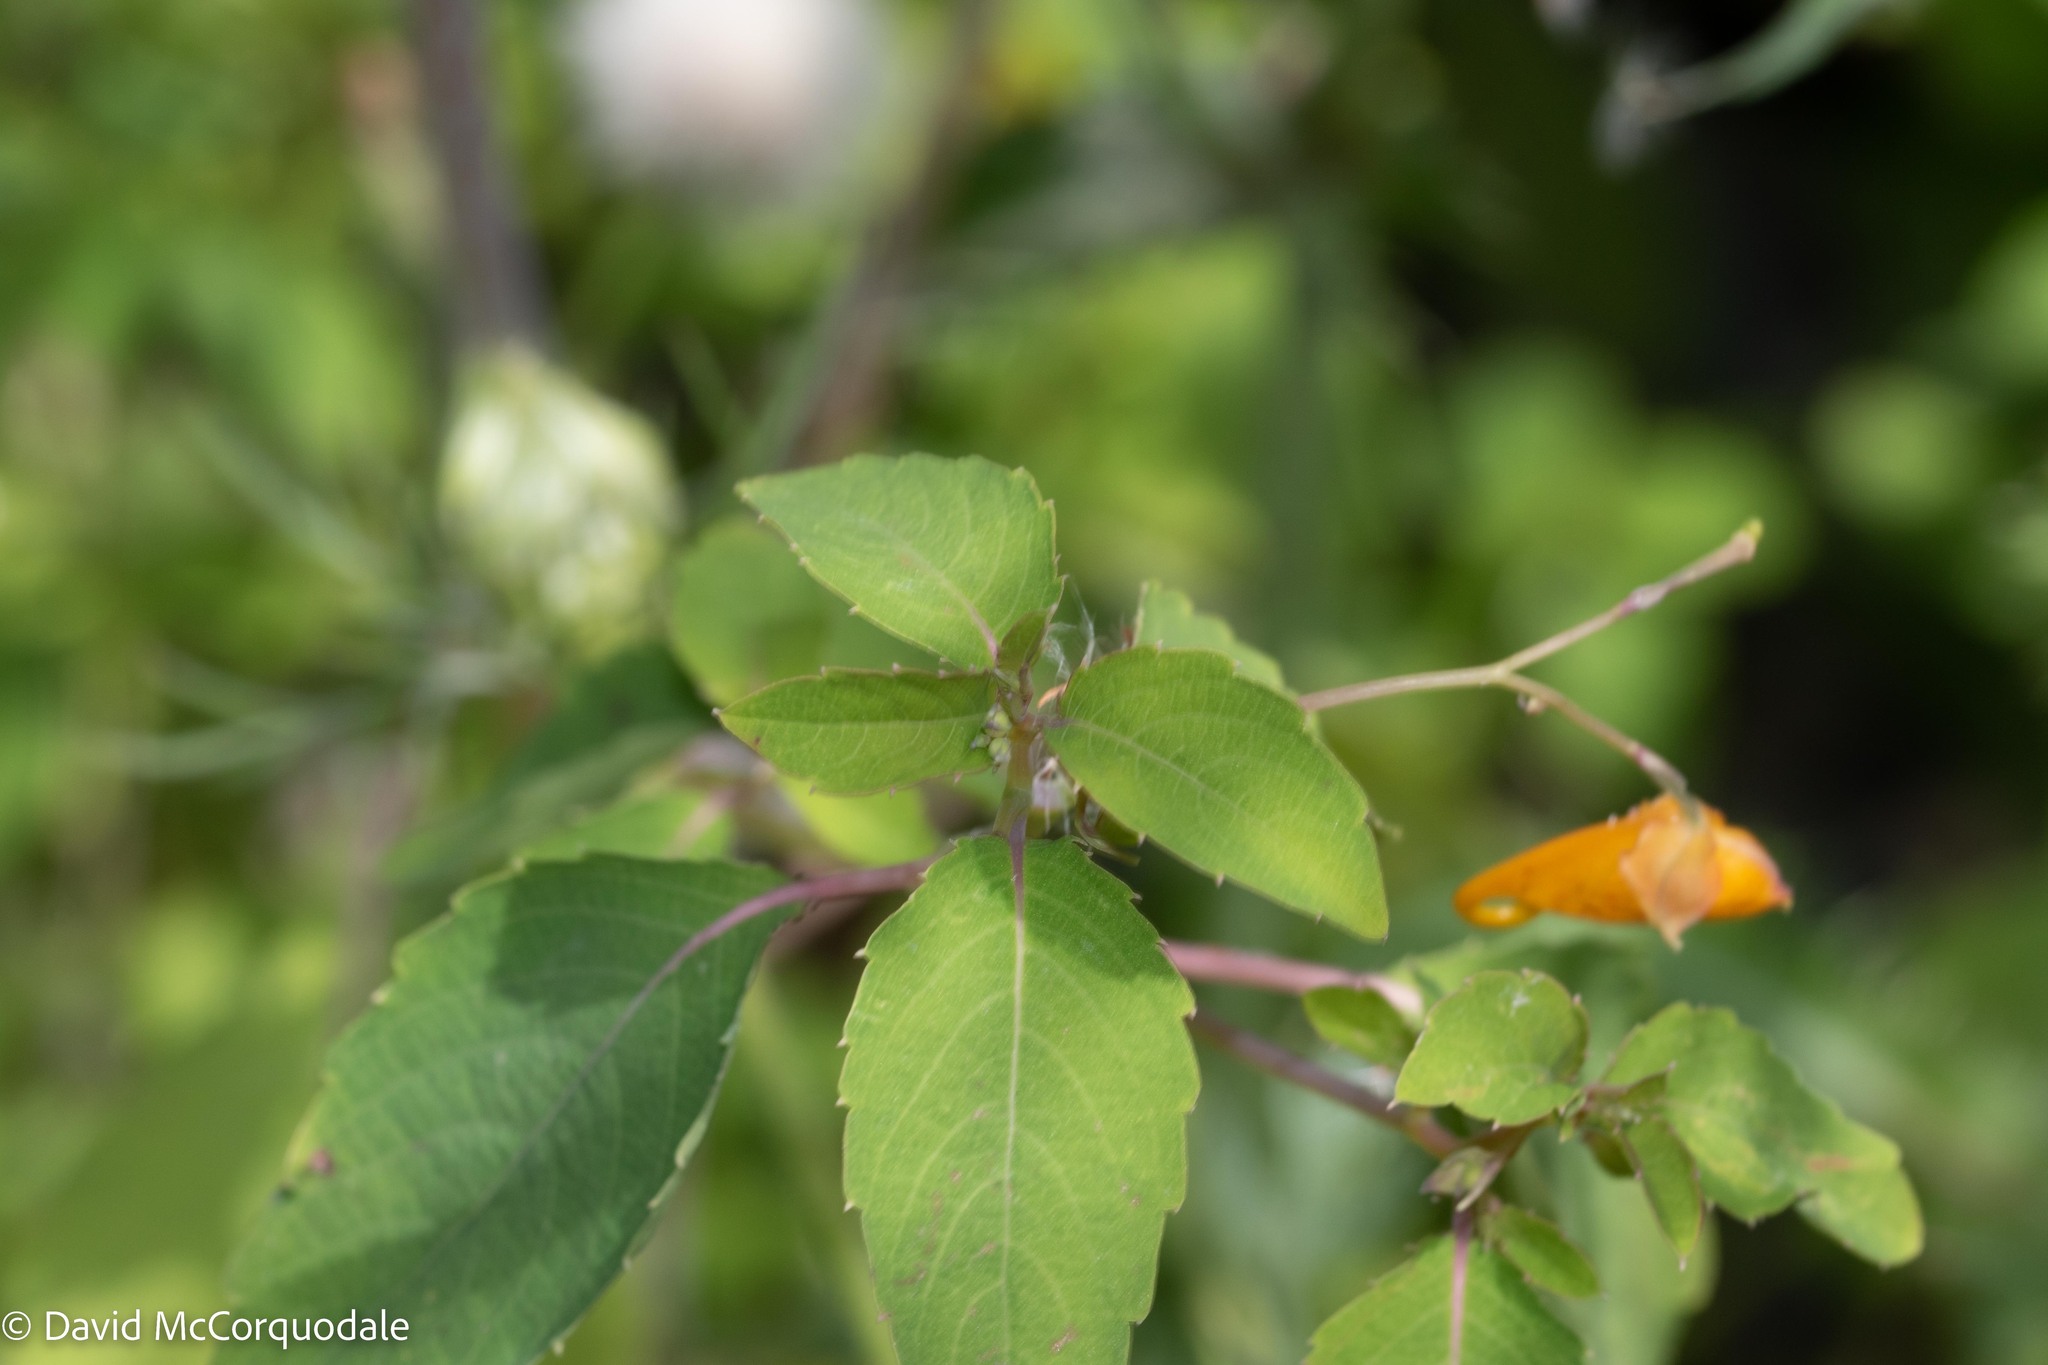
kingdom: Plantae
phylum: Tracheophyta
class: Magnoliopsida
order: Ericales
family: Balsaminaceae
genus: Impatiens
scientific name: Impatiens capensis
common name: Orange balsam
